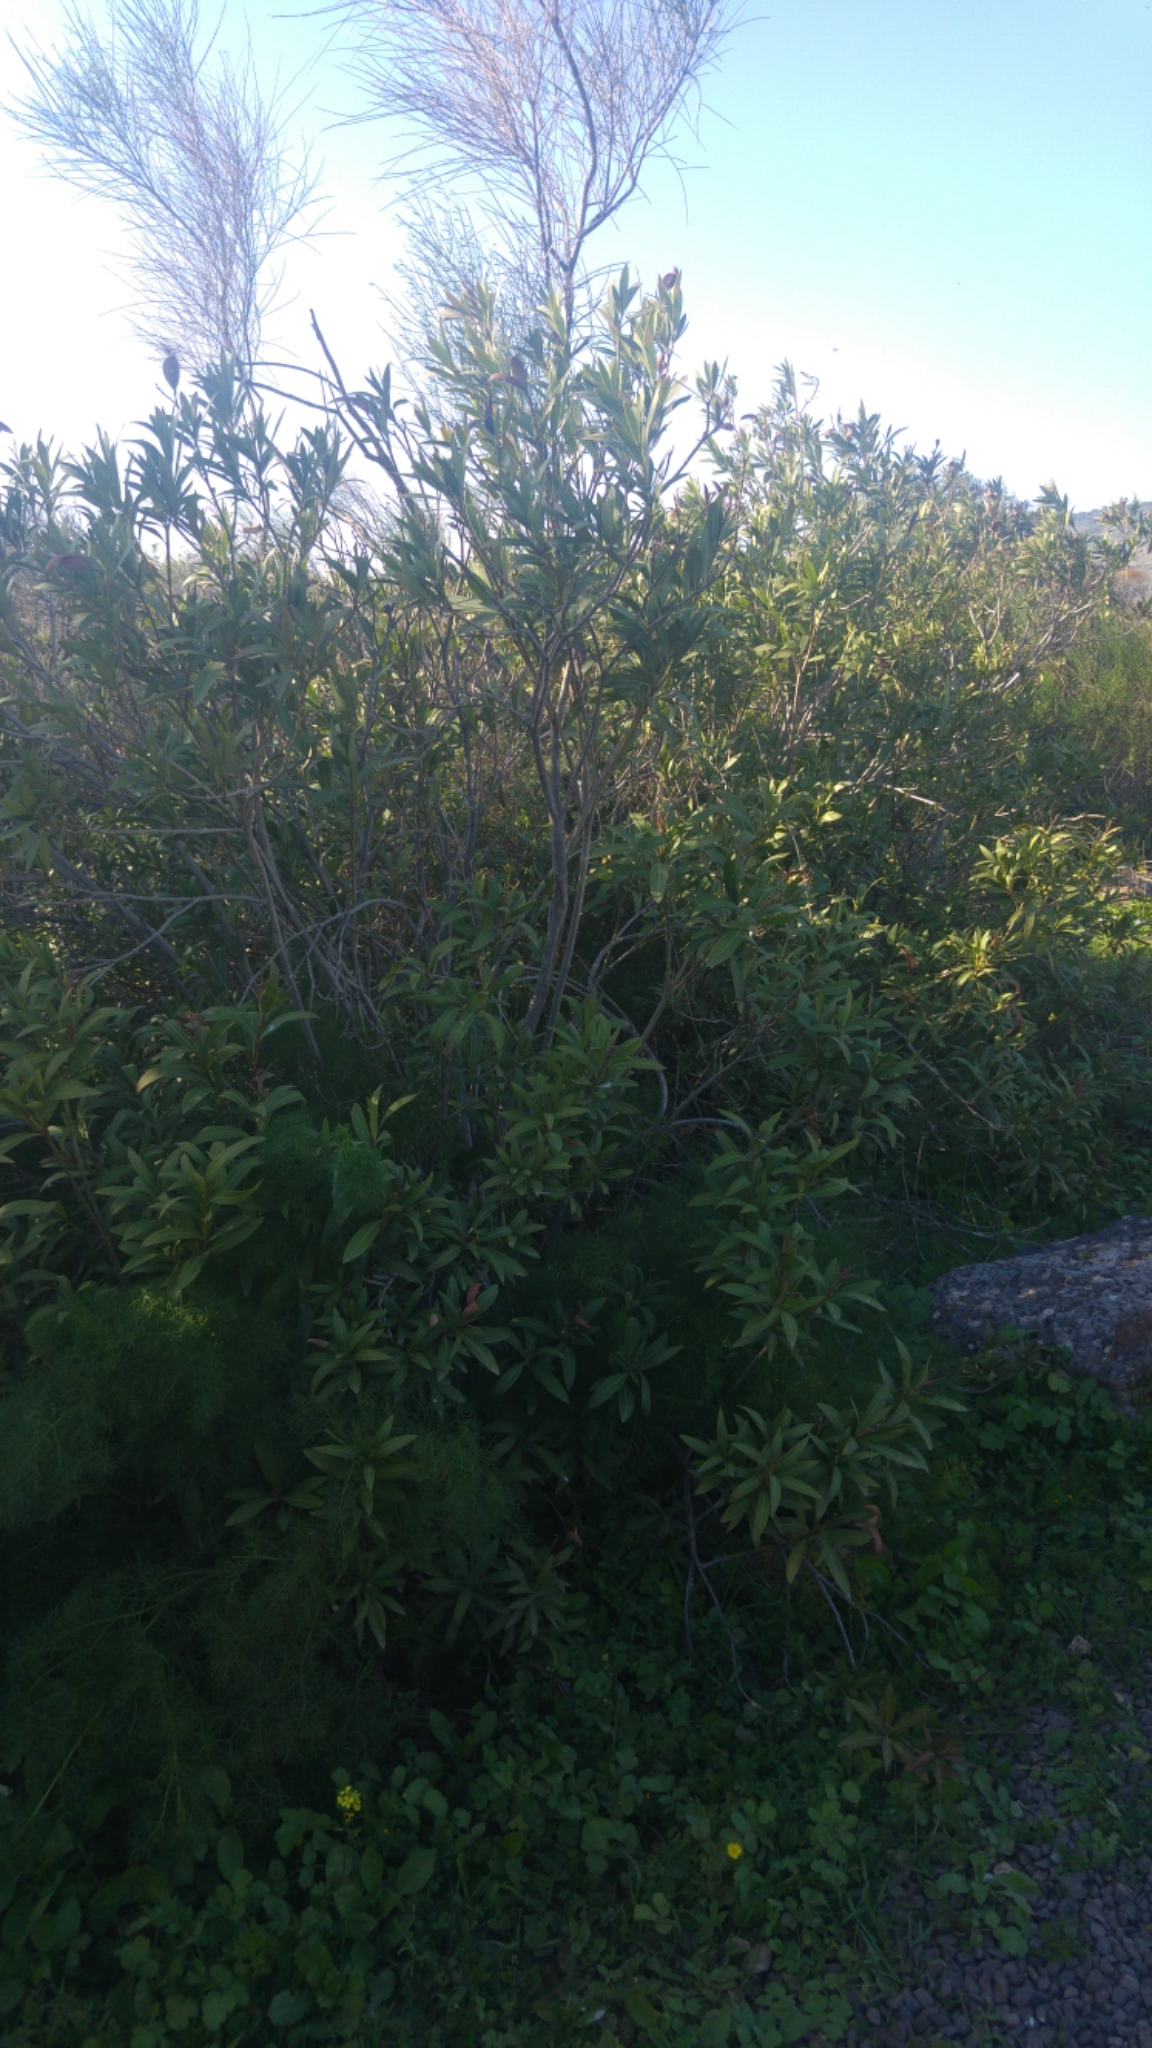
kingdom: Plantae
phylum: Tracheophyta
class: Magnoliopsida
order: Gentianales
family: Apocynaceae
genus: Nerium
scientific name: Nerium oleander
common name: Oleander
